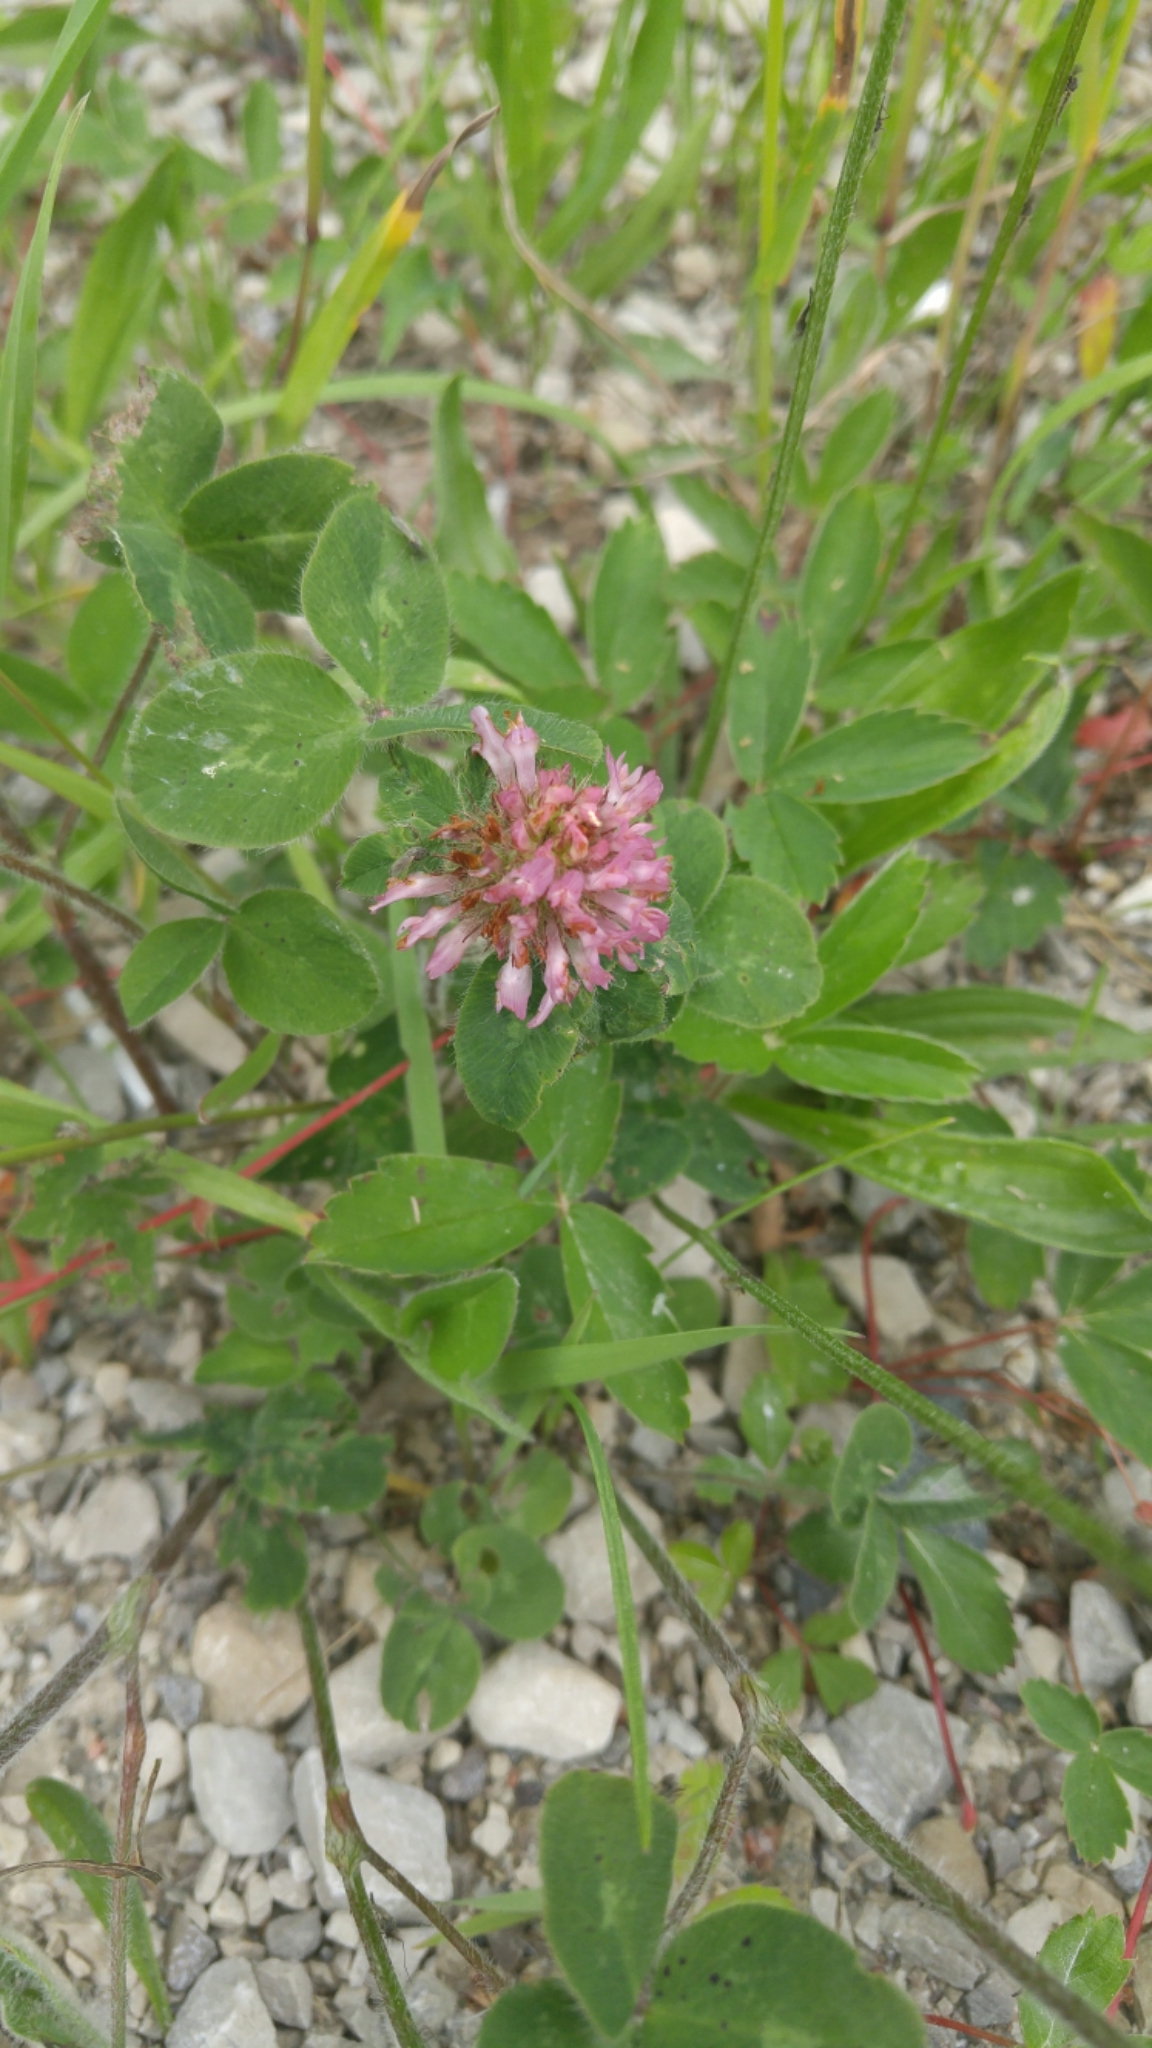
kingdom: Plantae
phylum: Tracheophyta
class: Magnoliopsida
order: Fabales
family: Fabaceae
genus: Trifolium
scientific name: Trifolium pratense
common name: Red clover
